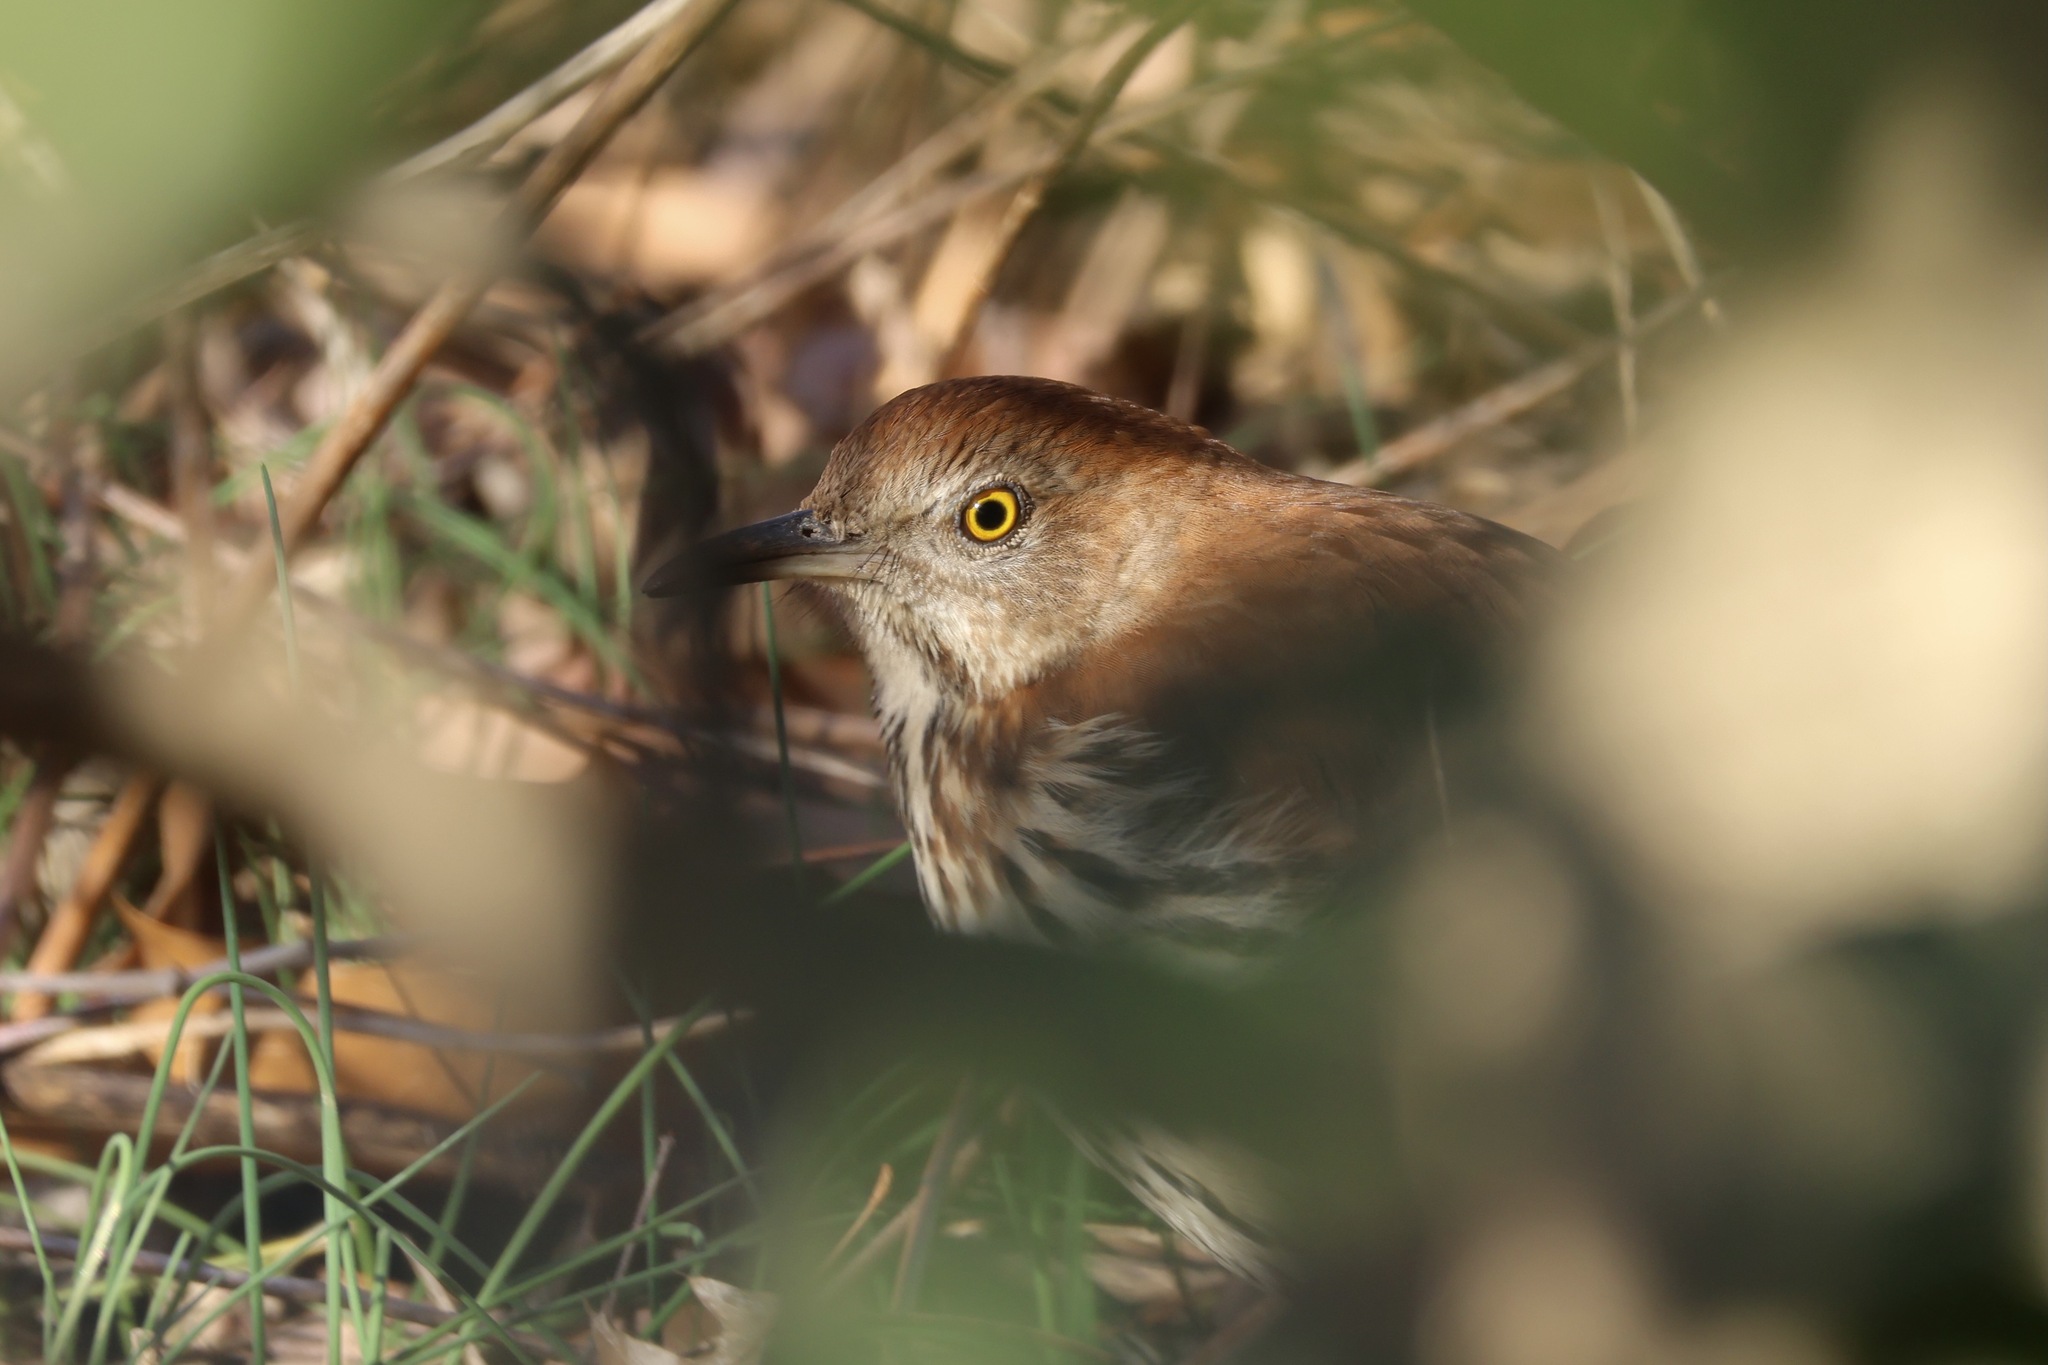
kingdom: Animalia
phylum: Chordata
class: Aves
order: Passeriformes
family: Mimidae
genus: Toxostoma
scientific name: Toxostoma rufum
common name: Brown thrasher
